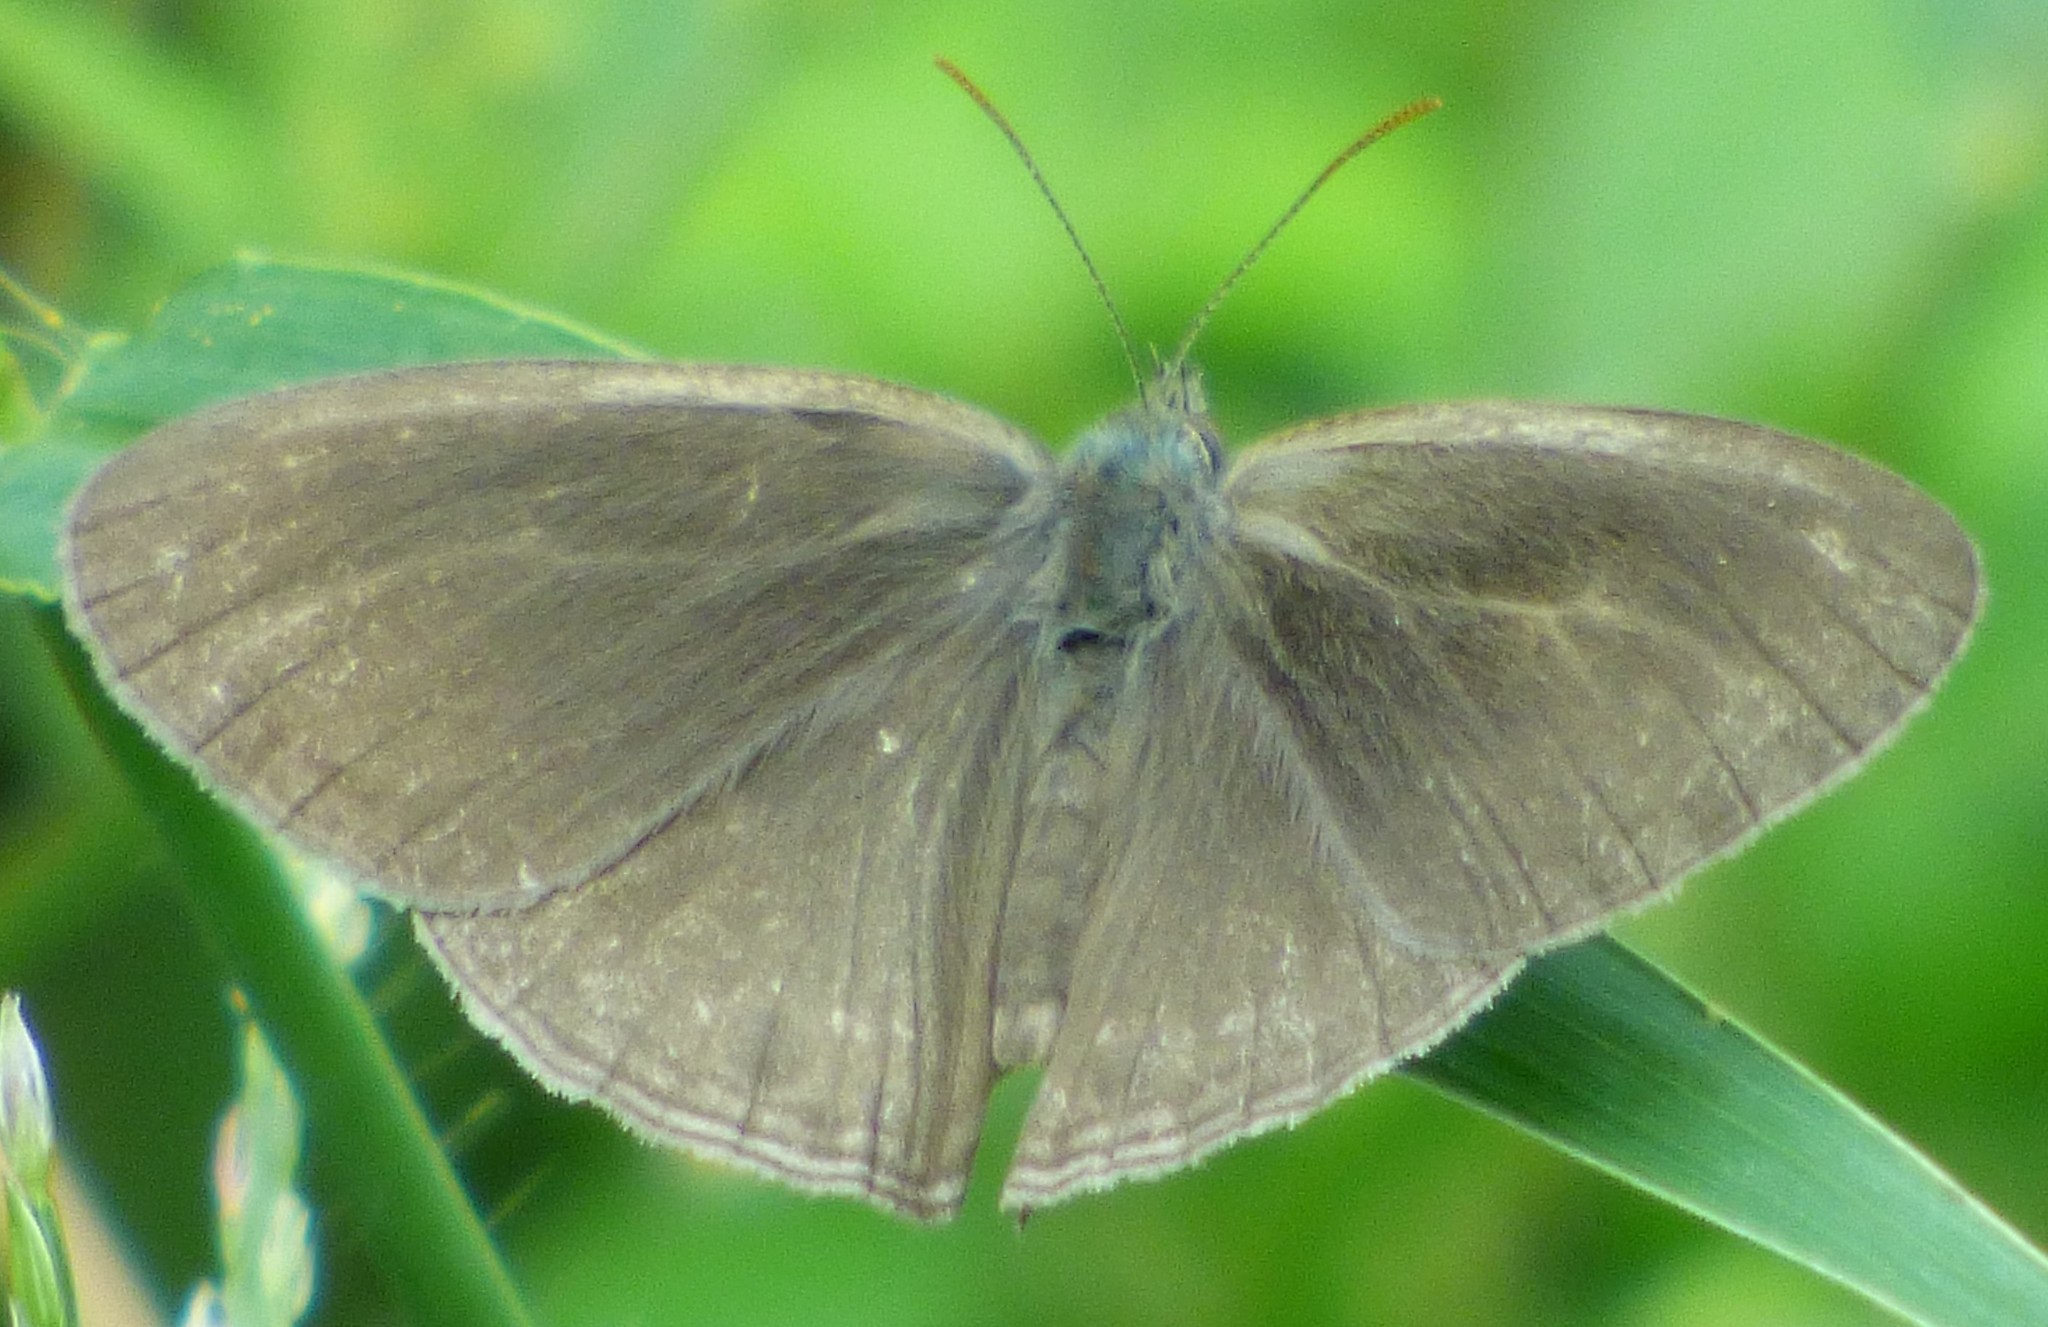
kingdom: Animalia
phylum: Arthropoda
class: Insecta
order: Lepidoptera
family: Nymphalidae
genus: Hermeuptychia
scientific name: Hermeuptychia hermes
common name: Hermes satyr
